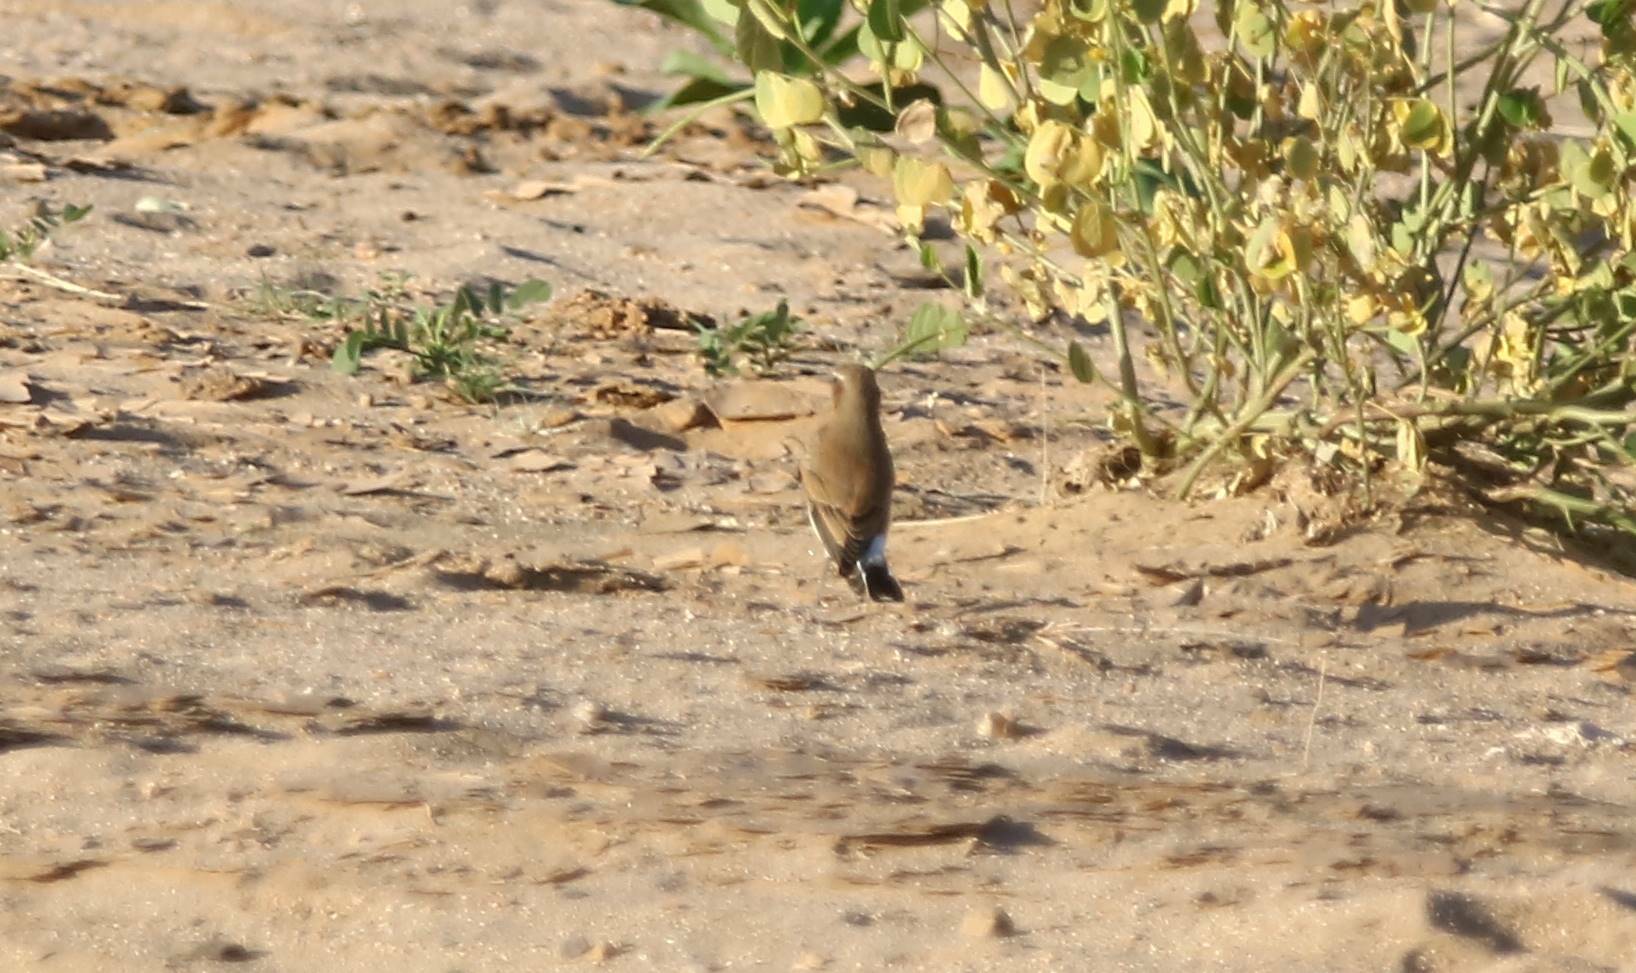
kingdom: Animalia
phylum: Chordata
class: Aves
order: Passeriformes
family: Muscicapidae
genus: Oenanthe
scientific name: Oenanthe isabellina
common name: Isabelline wheatear
